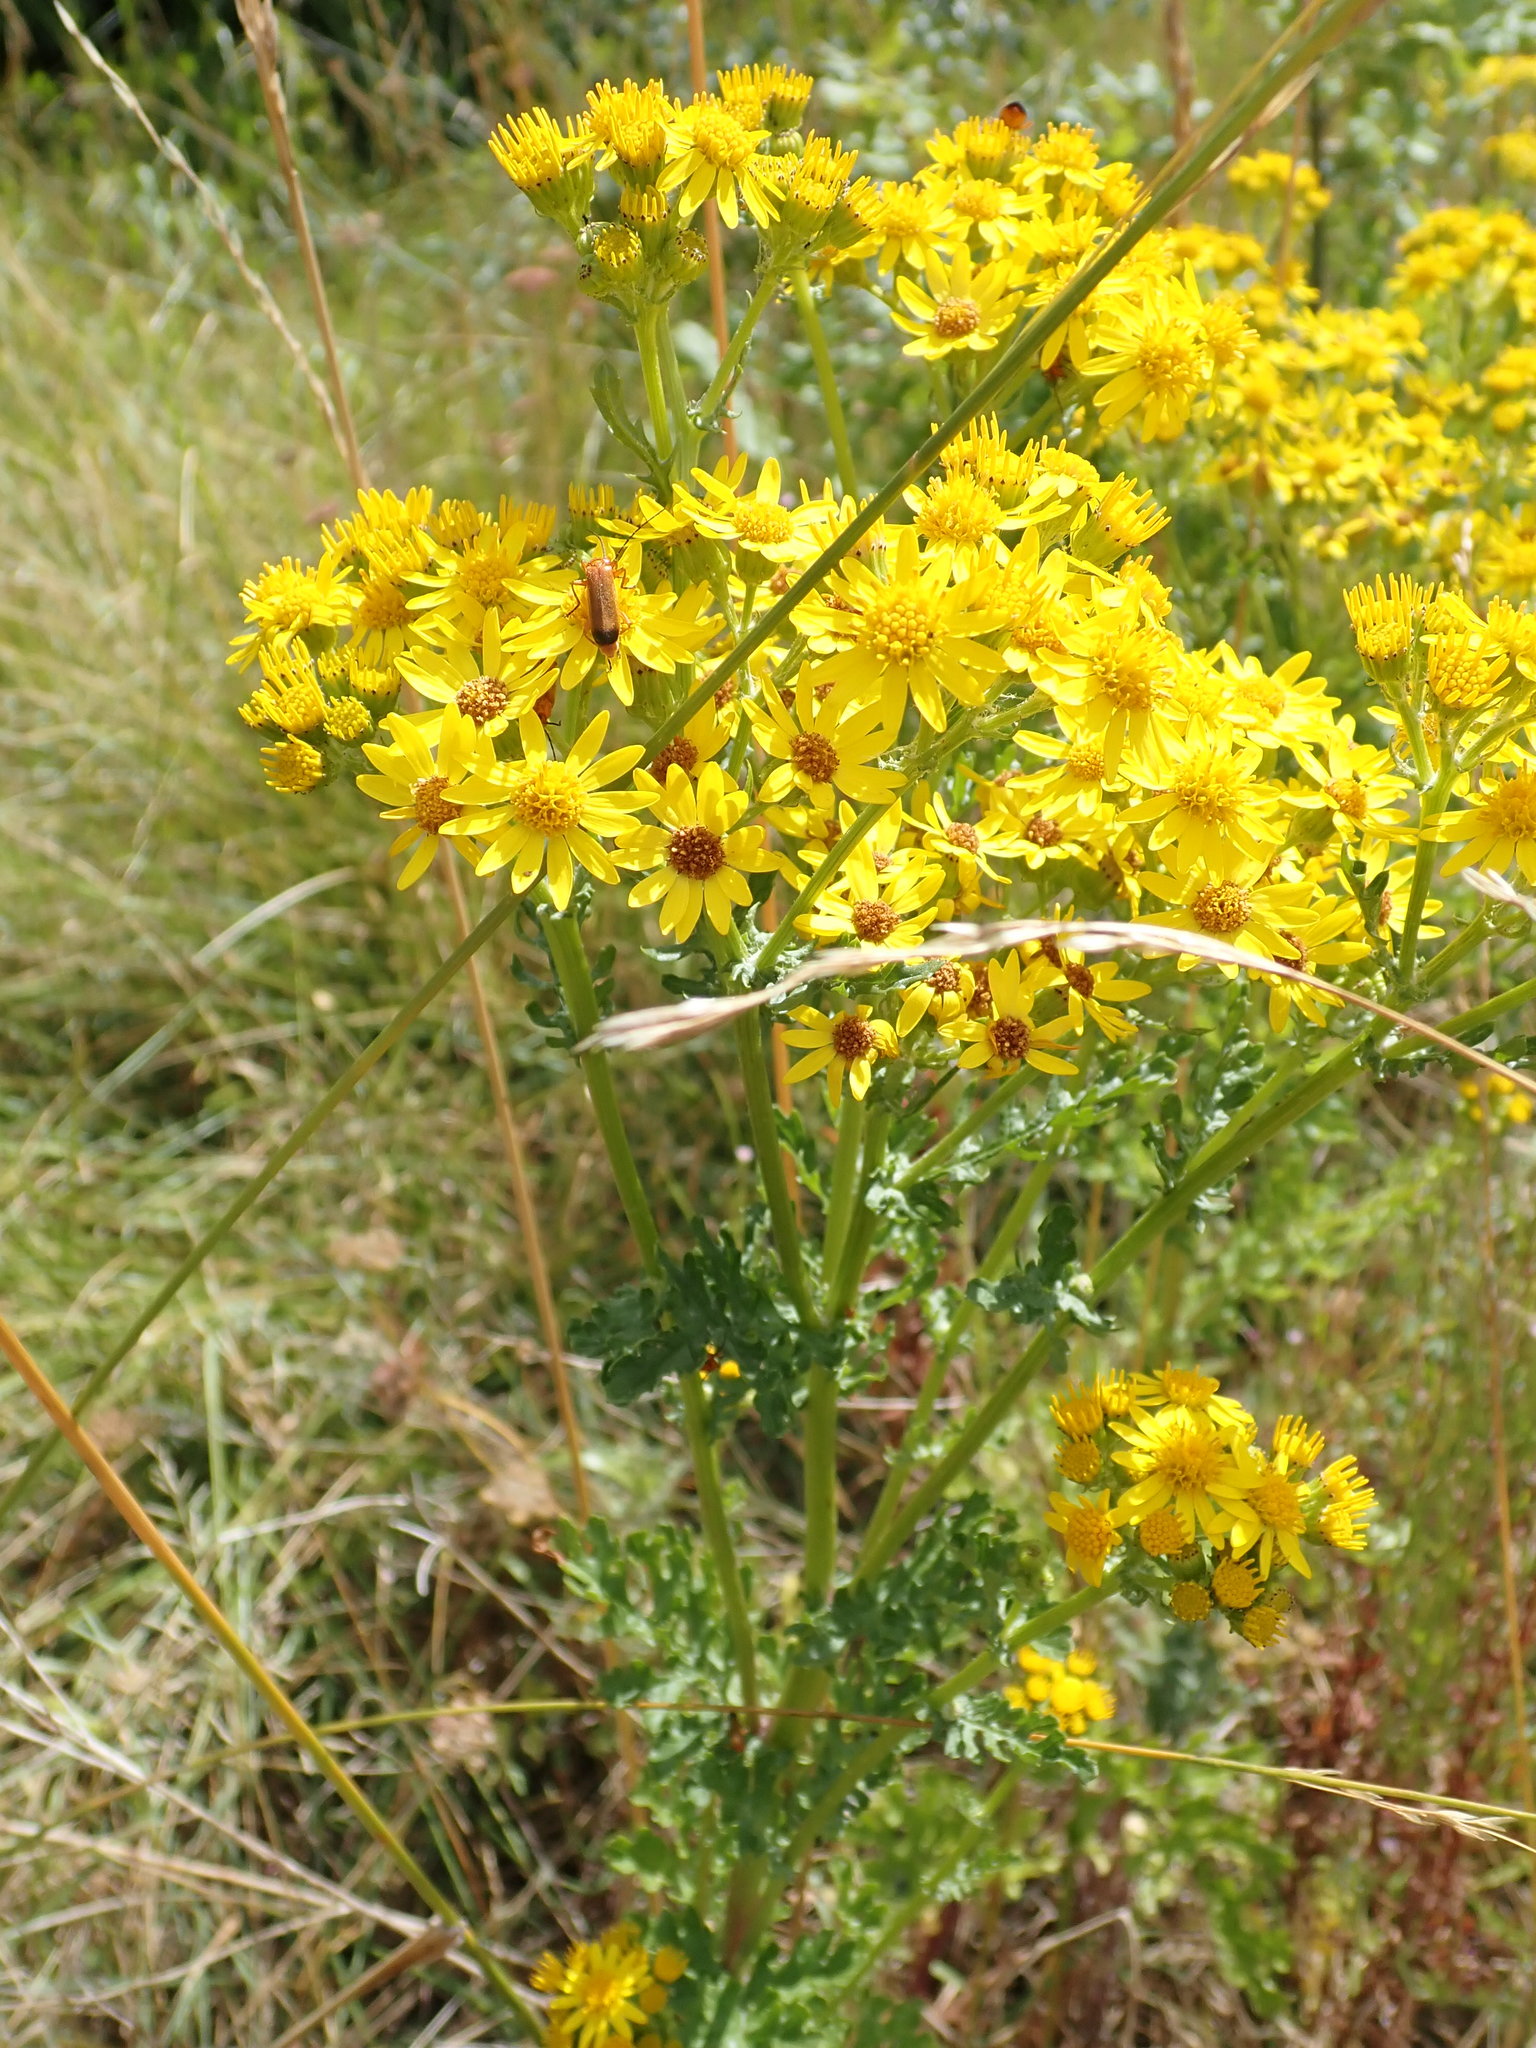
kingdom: Plantae
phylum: Tracheophyta
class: Magnoliopsida
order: Asterales
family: Asteraceae
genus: Jacobaea
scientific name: Jacobaea vulgaris
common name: Stinking willie
